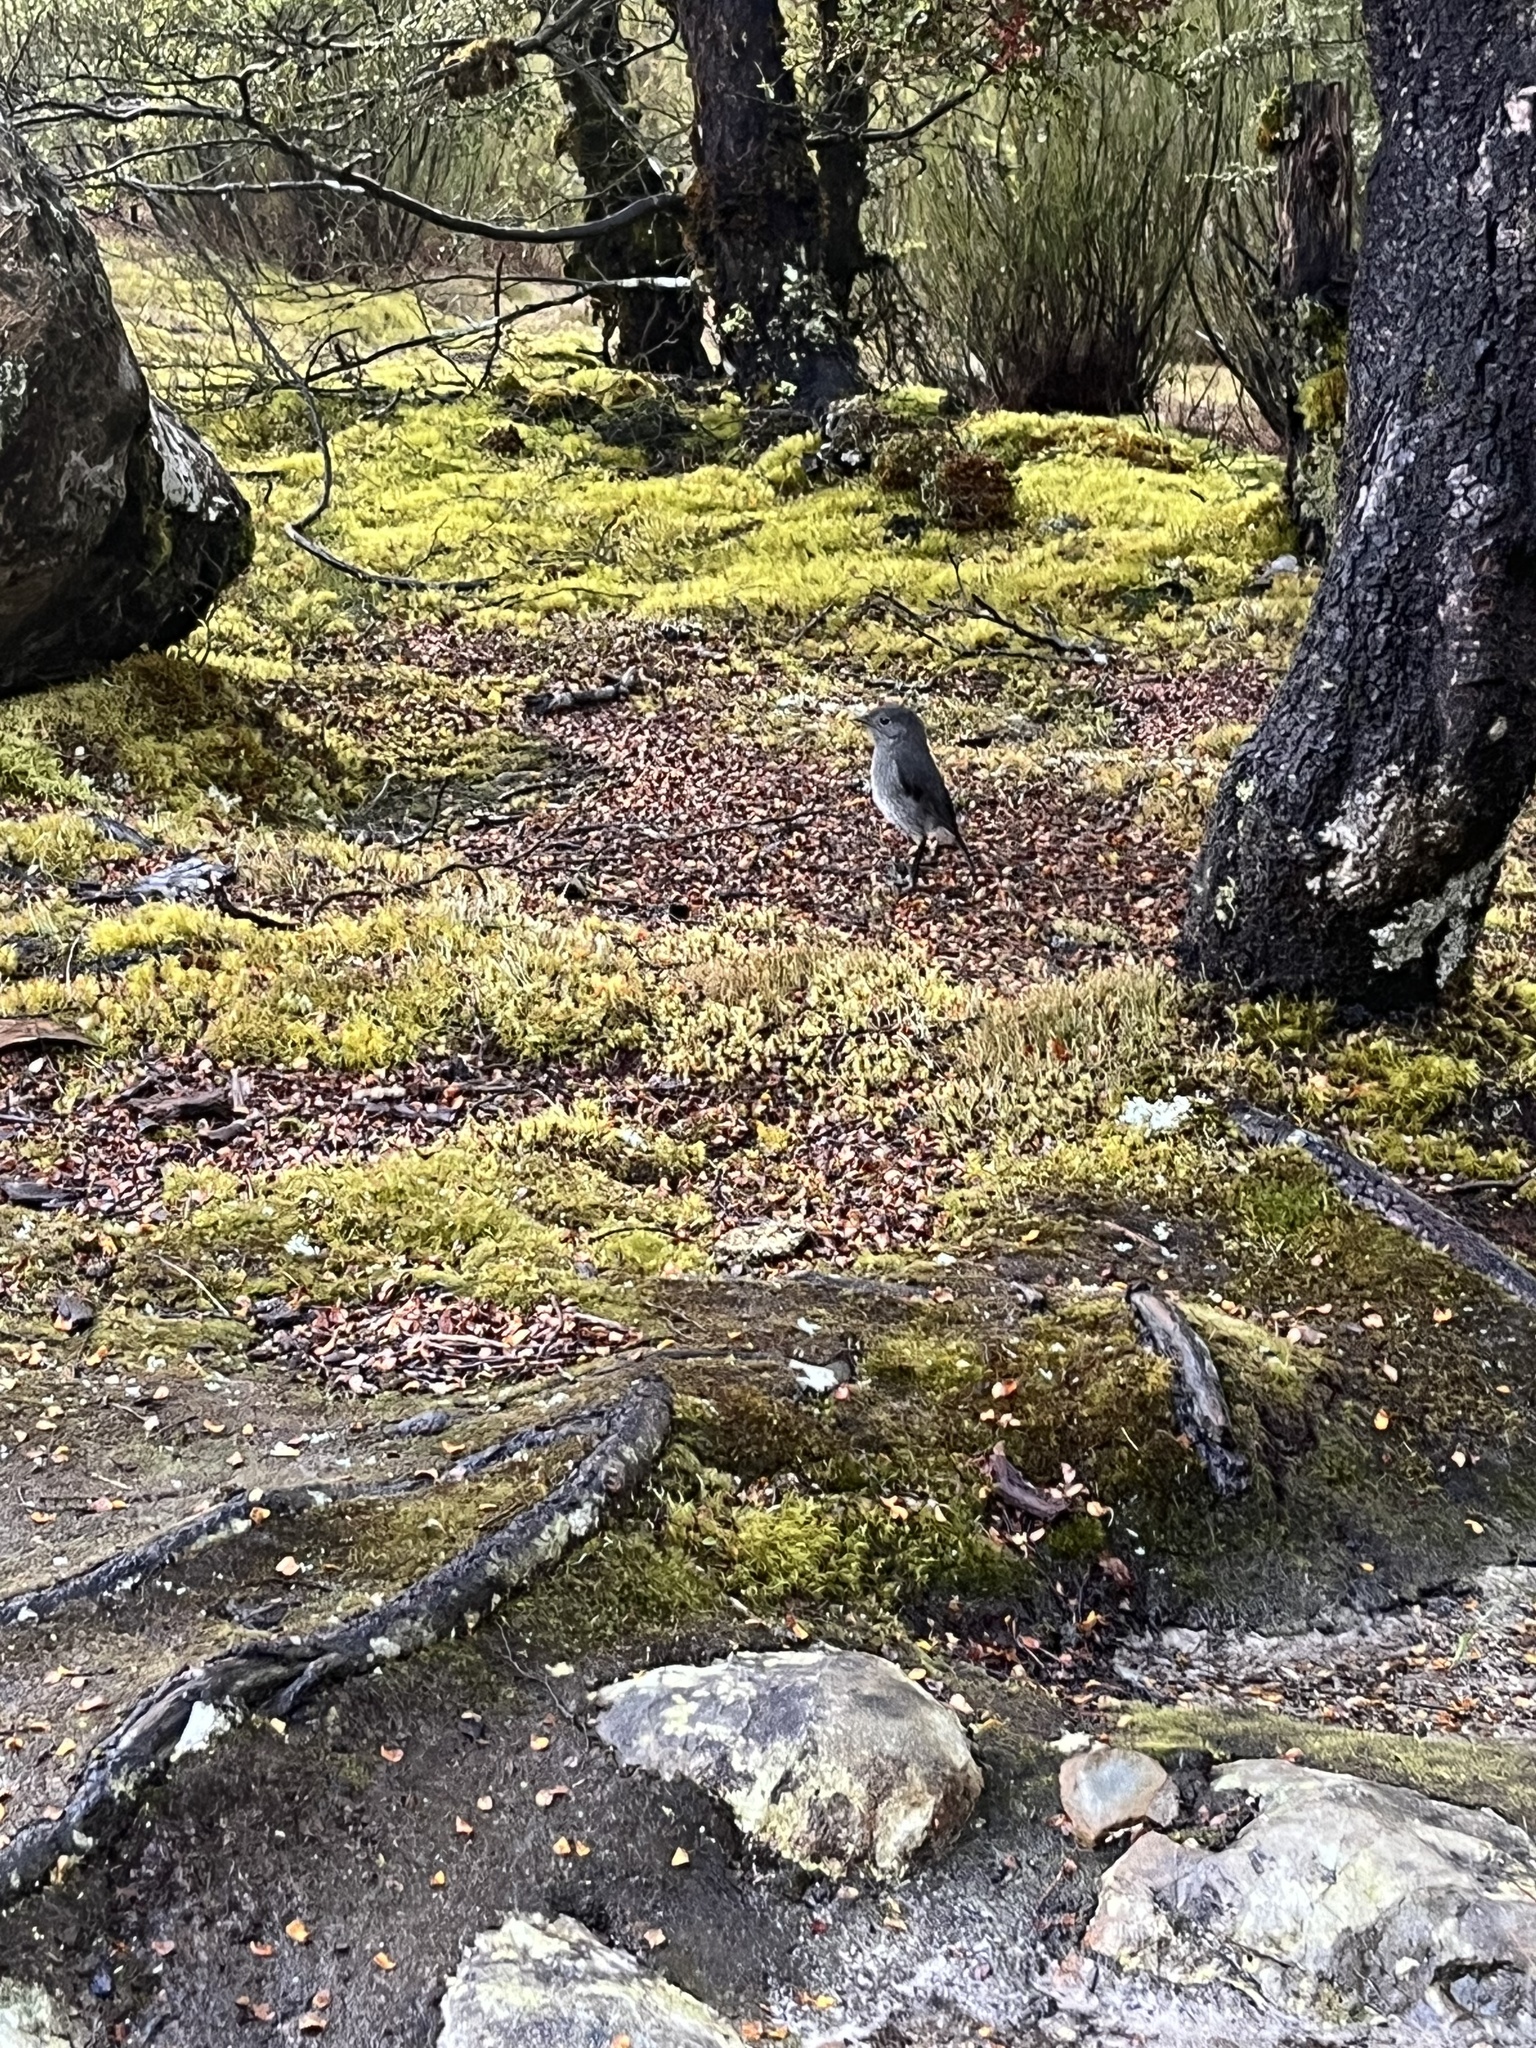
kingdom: Animalia
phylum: Chordata
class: Aves
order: Passeriformes
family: Petroicidae
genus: Petroica
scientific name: Petroica australis
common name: New zealand robin
